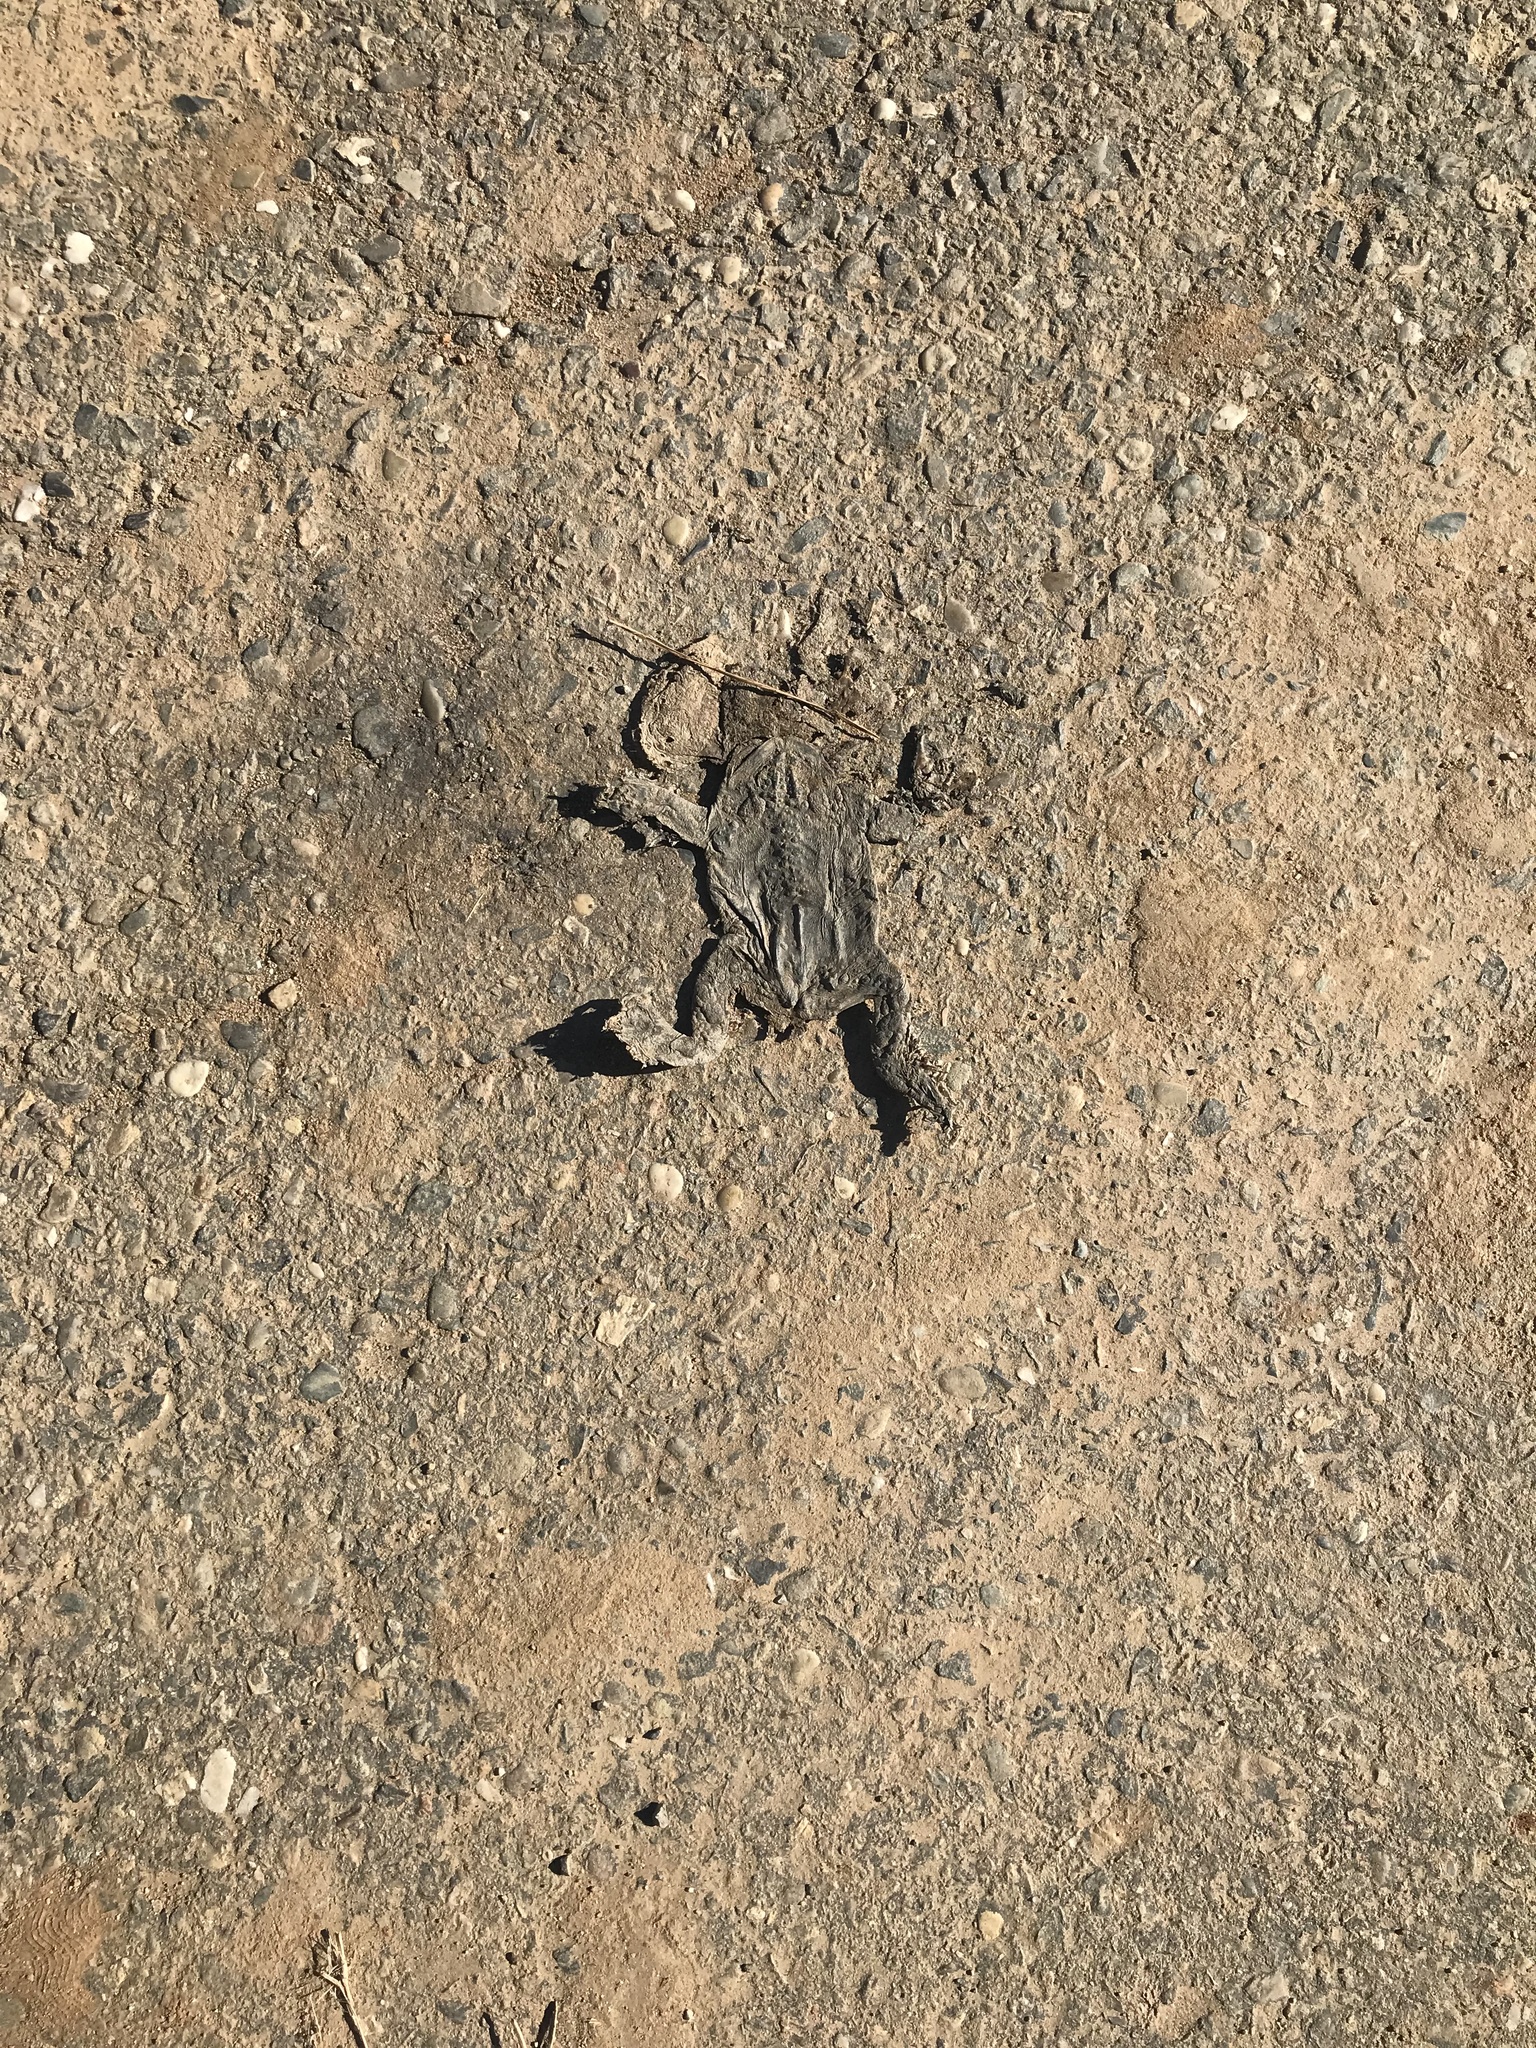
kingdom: Animalia
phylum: Chordata
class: Amphibia
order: Anura
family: Bufonidae
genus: Anaxyrus
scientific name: Anaxyrus boreas
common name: Western toad
